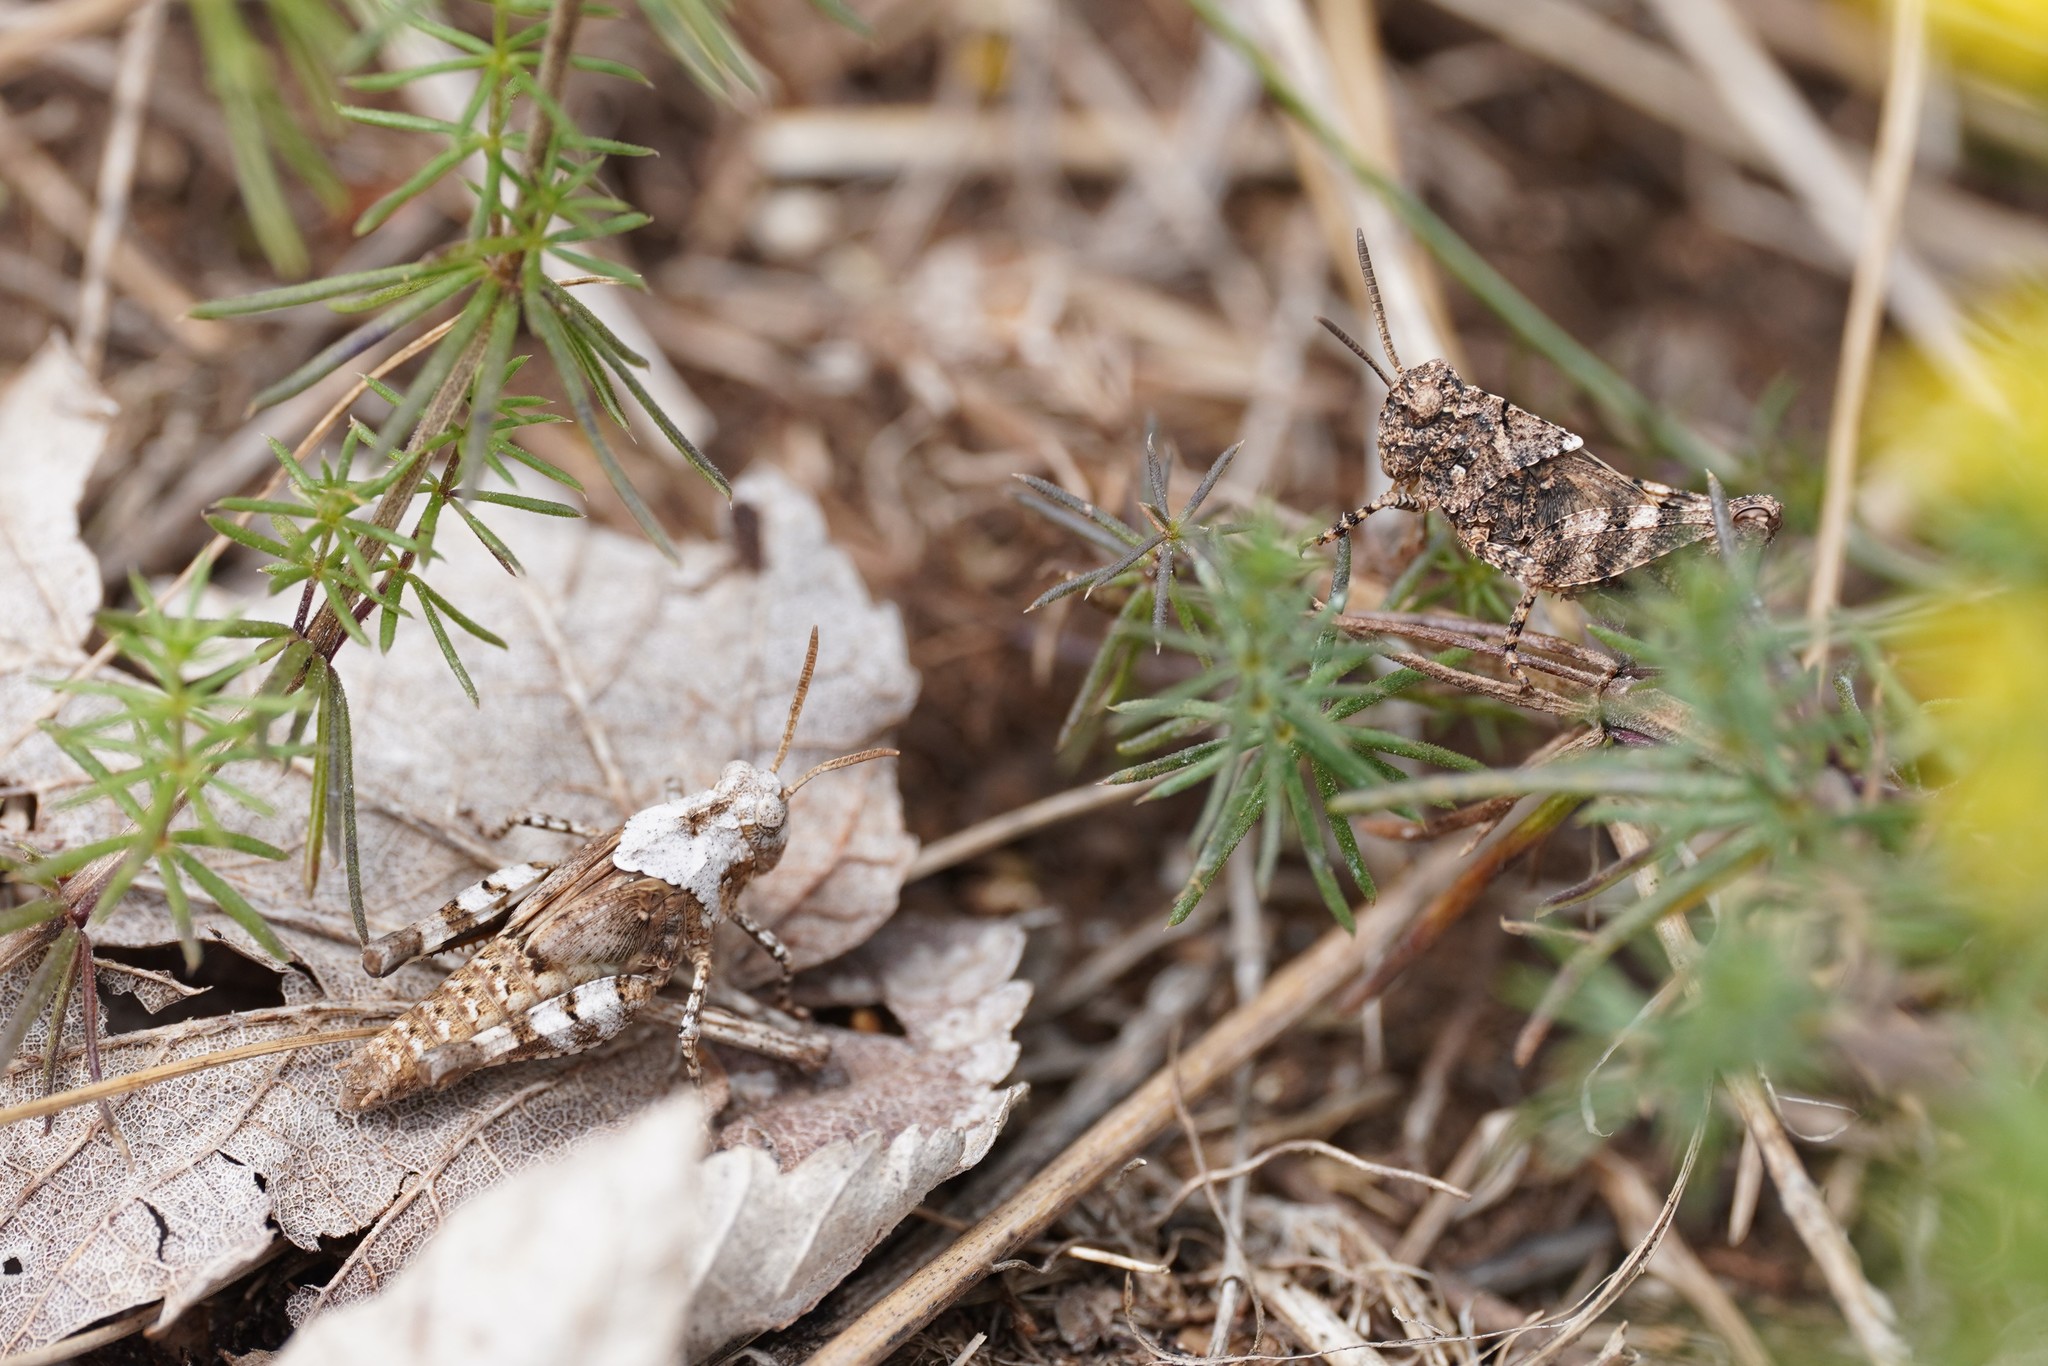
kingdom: Animalia
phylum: Arthropoda
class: Insecta
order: Orthoptera
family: Acrididae
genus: Oedipoda
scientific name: Oedipoda caerulescens
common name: Blue-winged grasshopper
